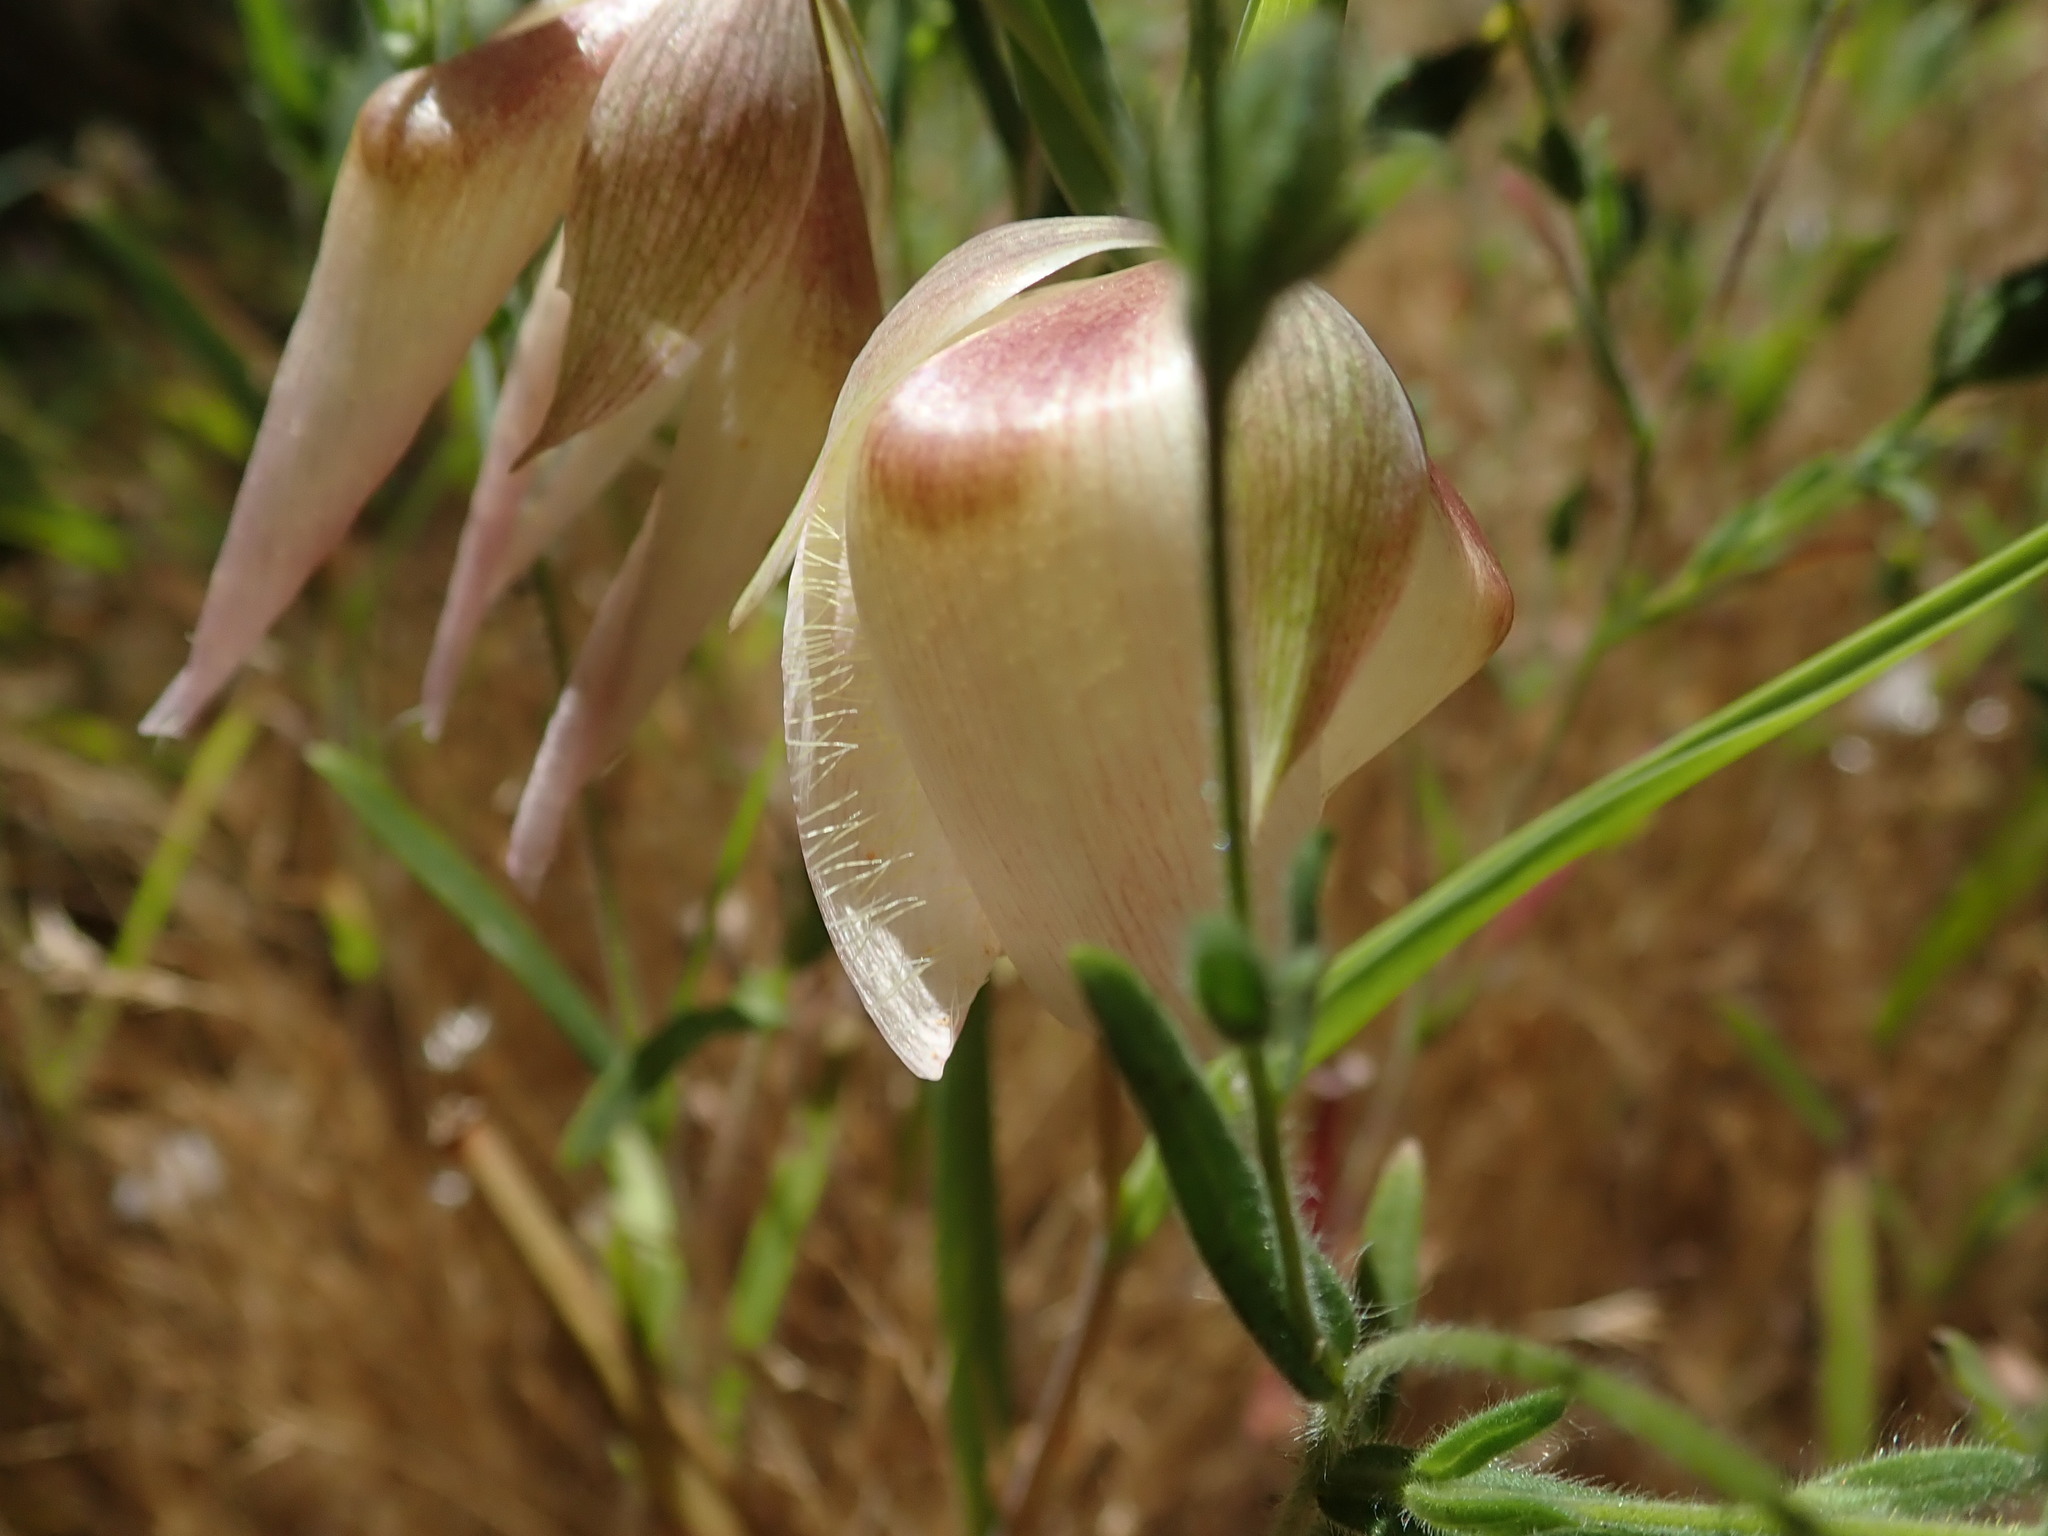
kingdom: Plantae
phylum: Tracheophyta
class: Liliopsida
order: Liliales
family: Liliaceae
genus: Calochortus
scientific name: Calochortus albus
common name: Fairy-lantern
